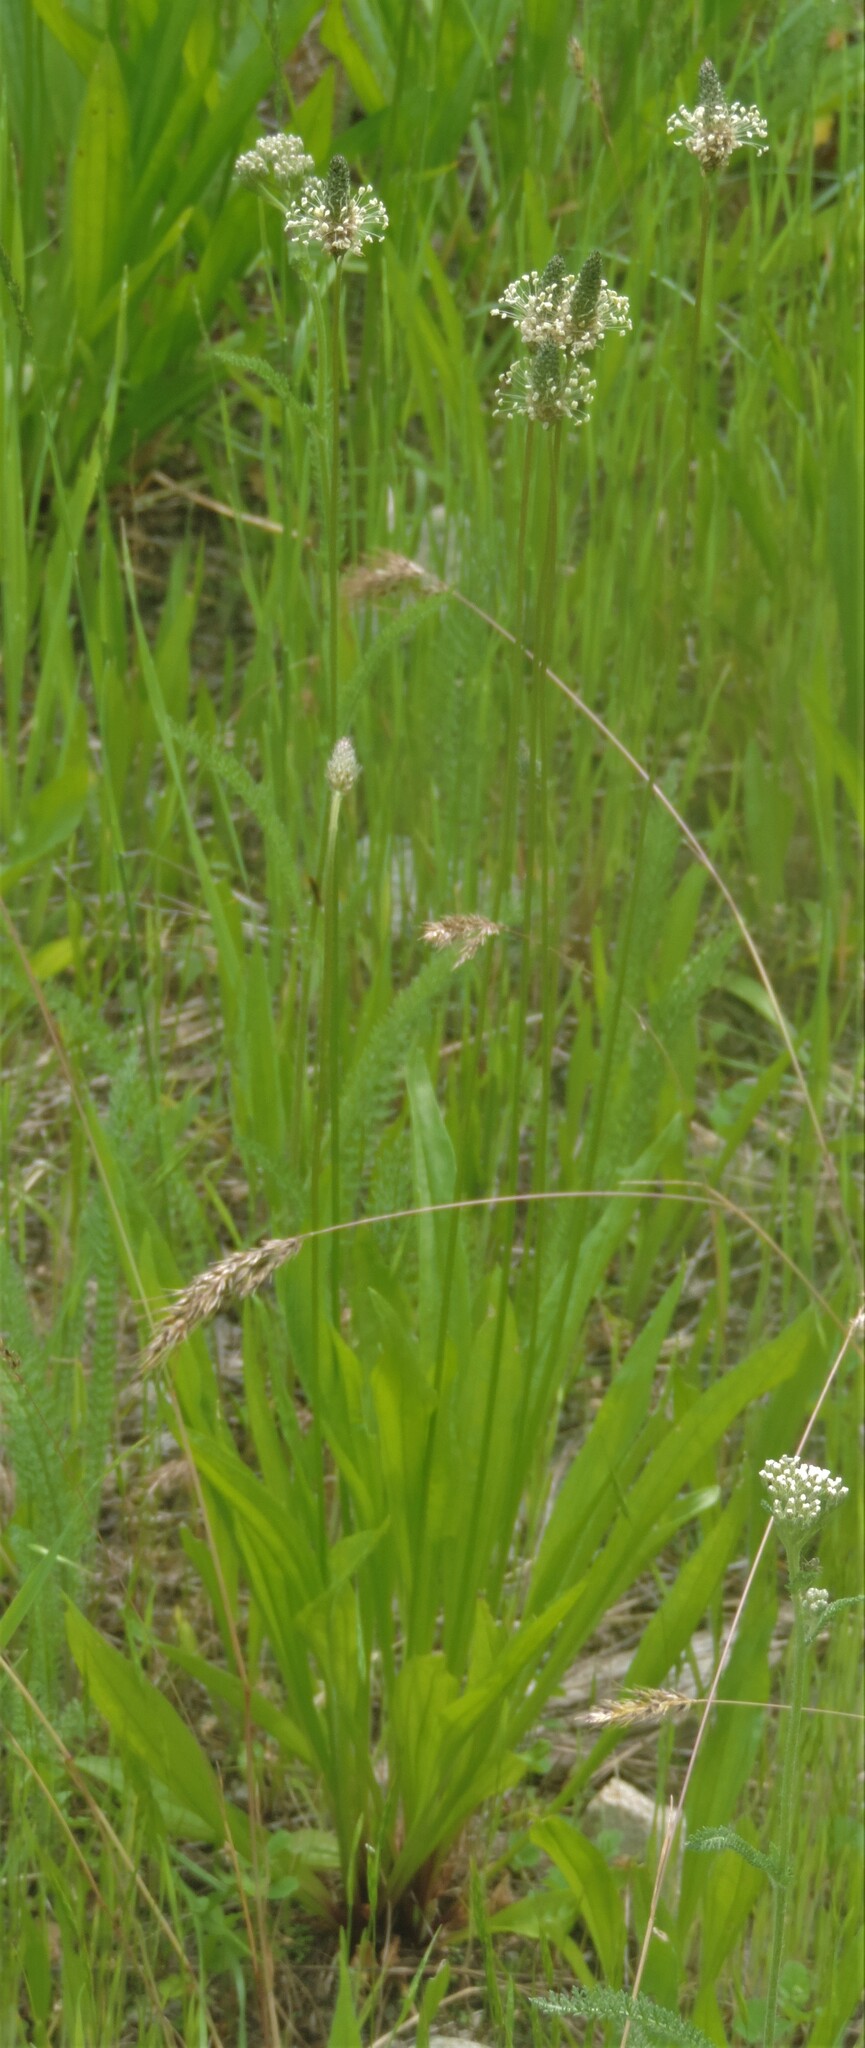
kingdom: Plantae
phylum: Tracheophyta
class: Magnoliopsida
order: Lamiales
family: Plantaginaceae
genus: Plantago
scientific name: Plantago lanceolata
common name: Ribwort plantain
